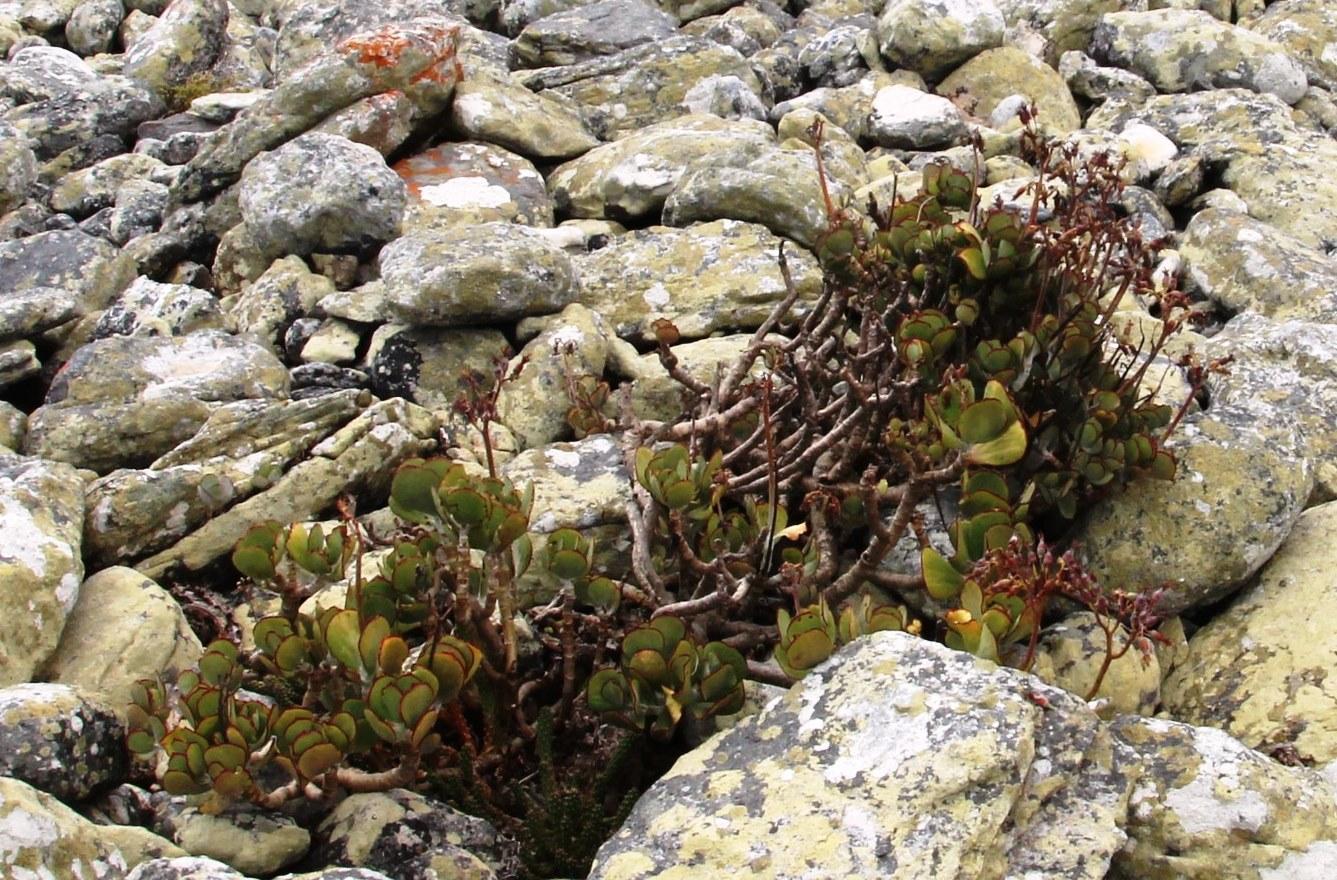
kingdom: Plantae
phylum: Tracheophyta
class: Magnoliopsida
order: Saxifragales
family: Crassulaceae
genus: Cotyledon
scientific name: Cotyledon orbiculata
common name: Pig's ear
